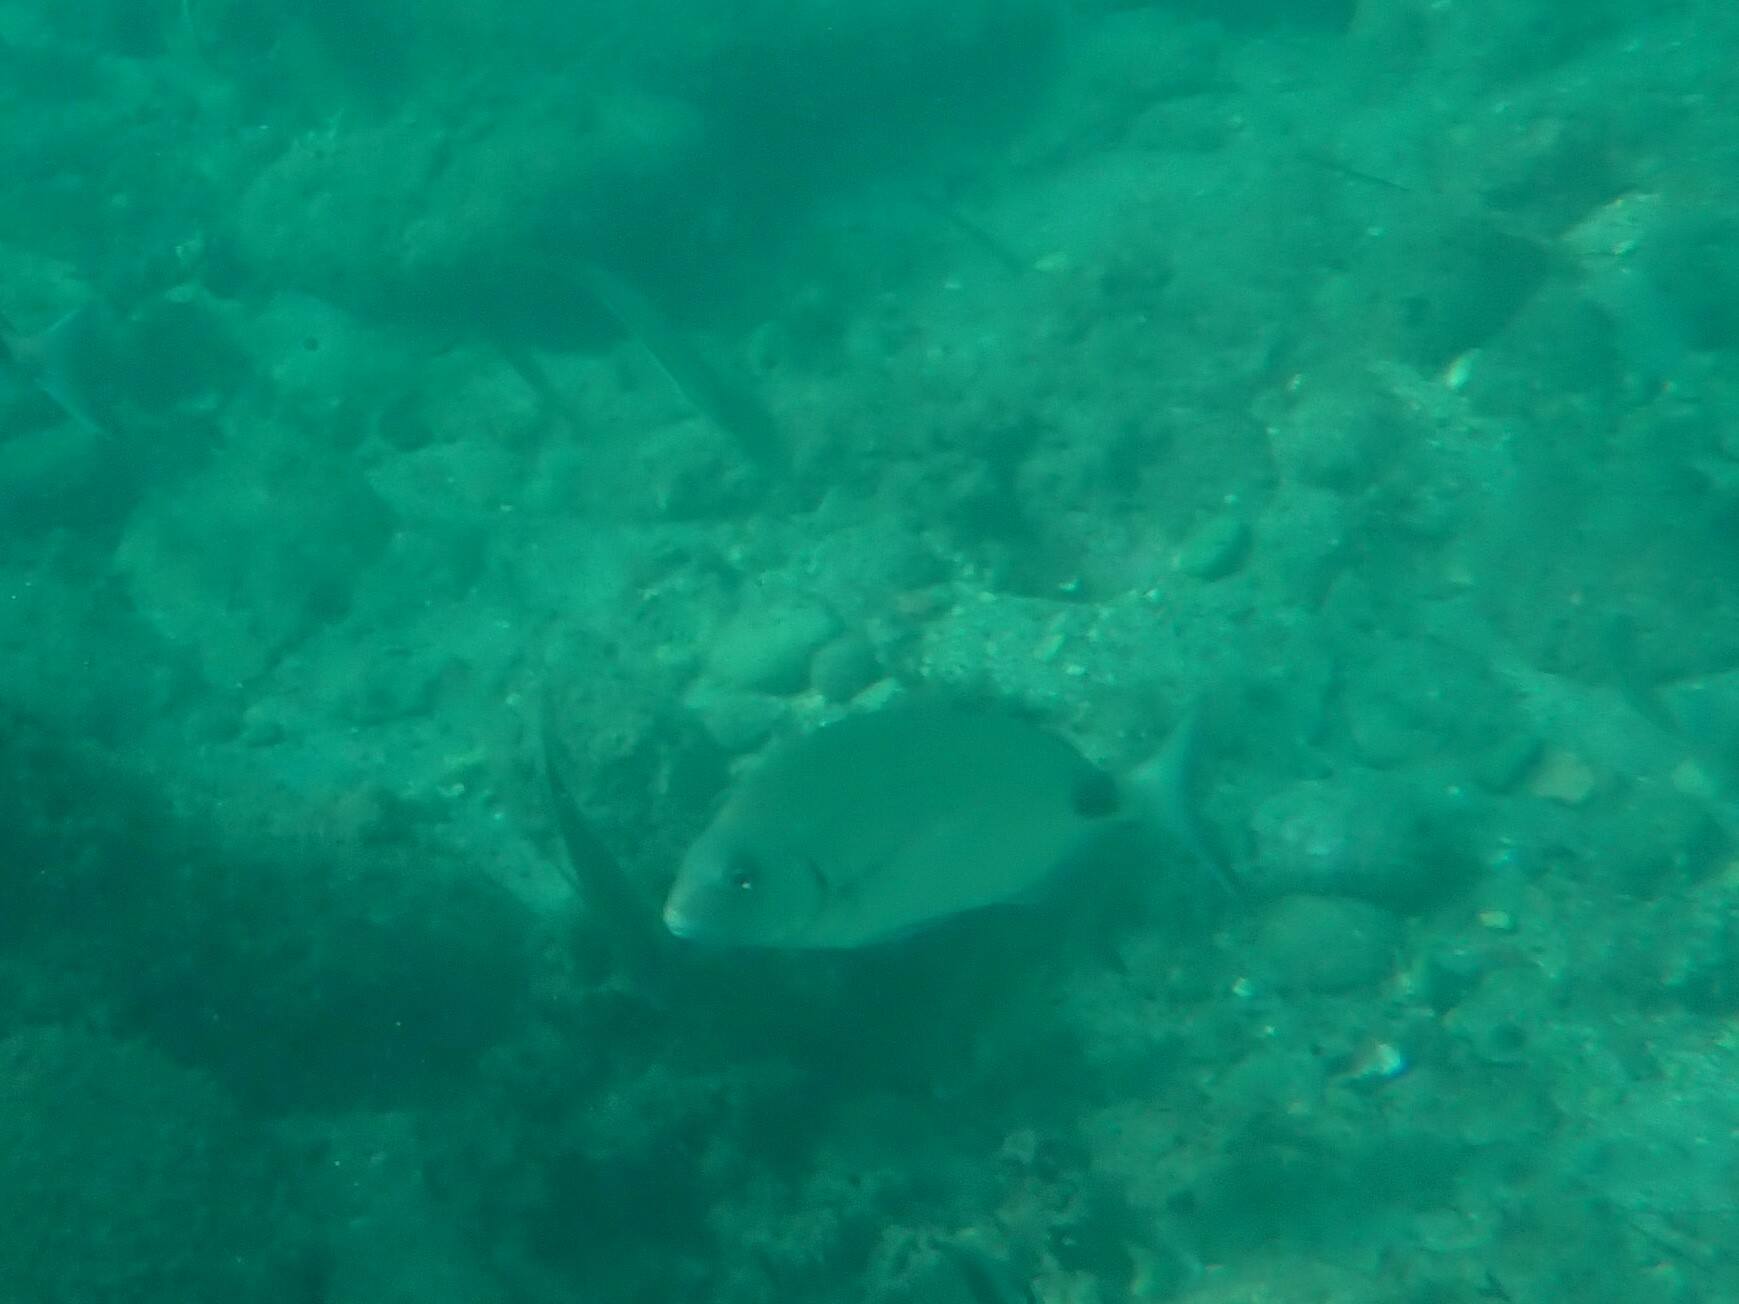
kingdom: Animalia
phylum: Chordata
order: Perciformes
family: Sparidae
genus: Diplodus
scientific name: Diplodus sargus
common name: White seabream
